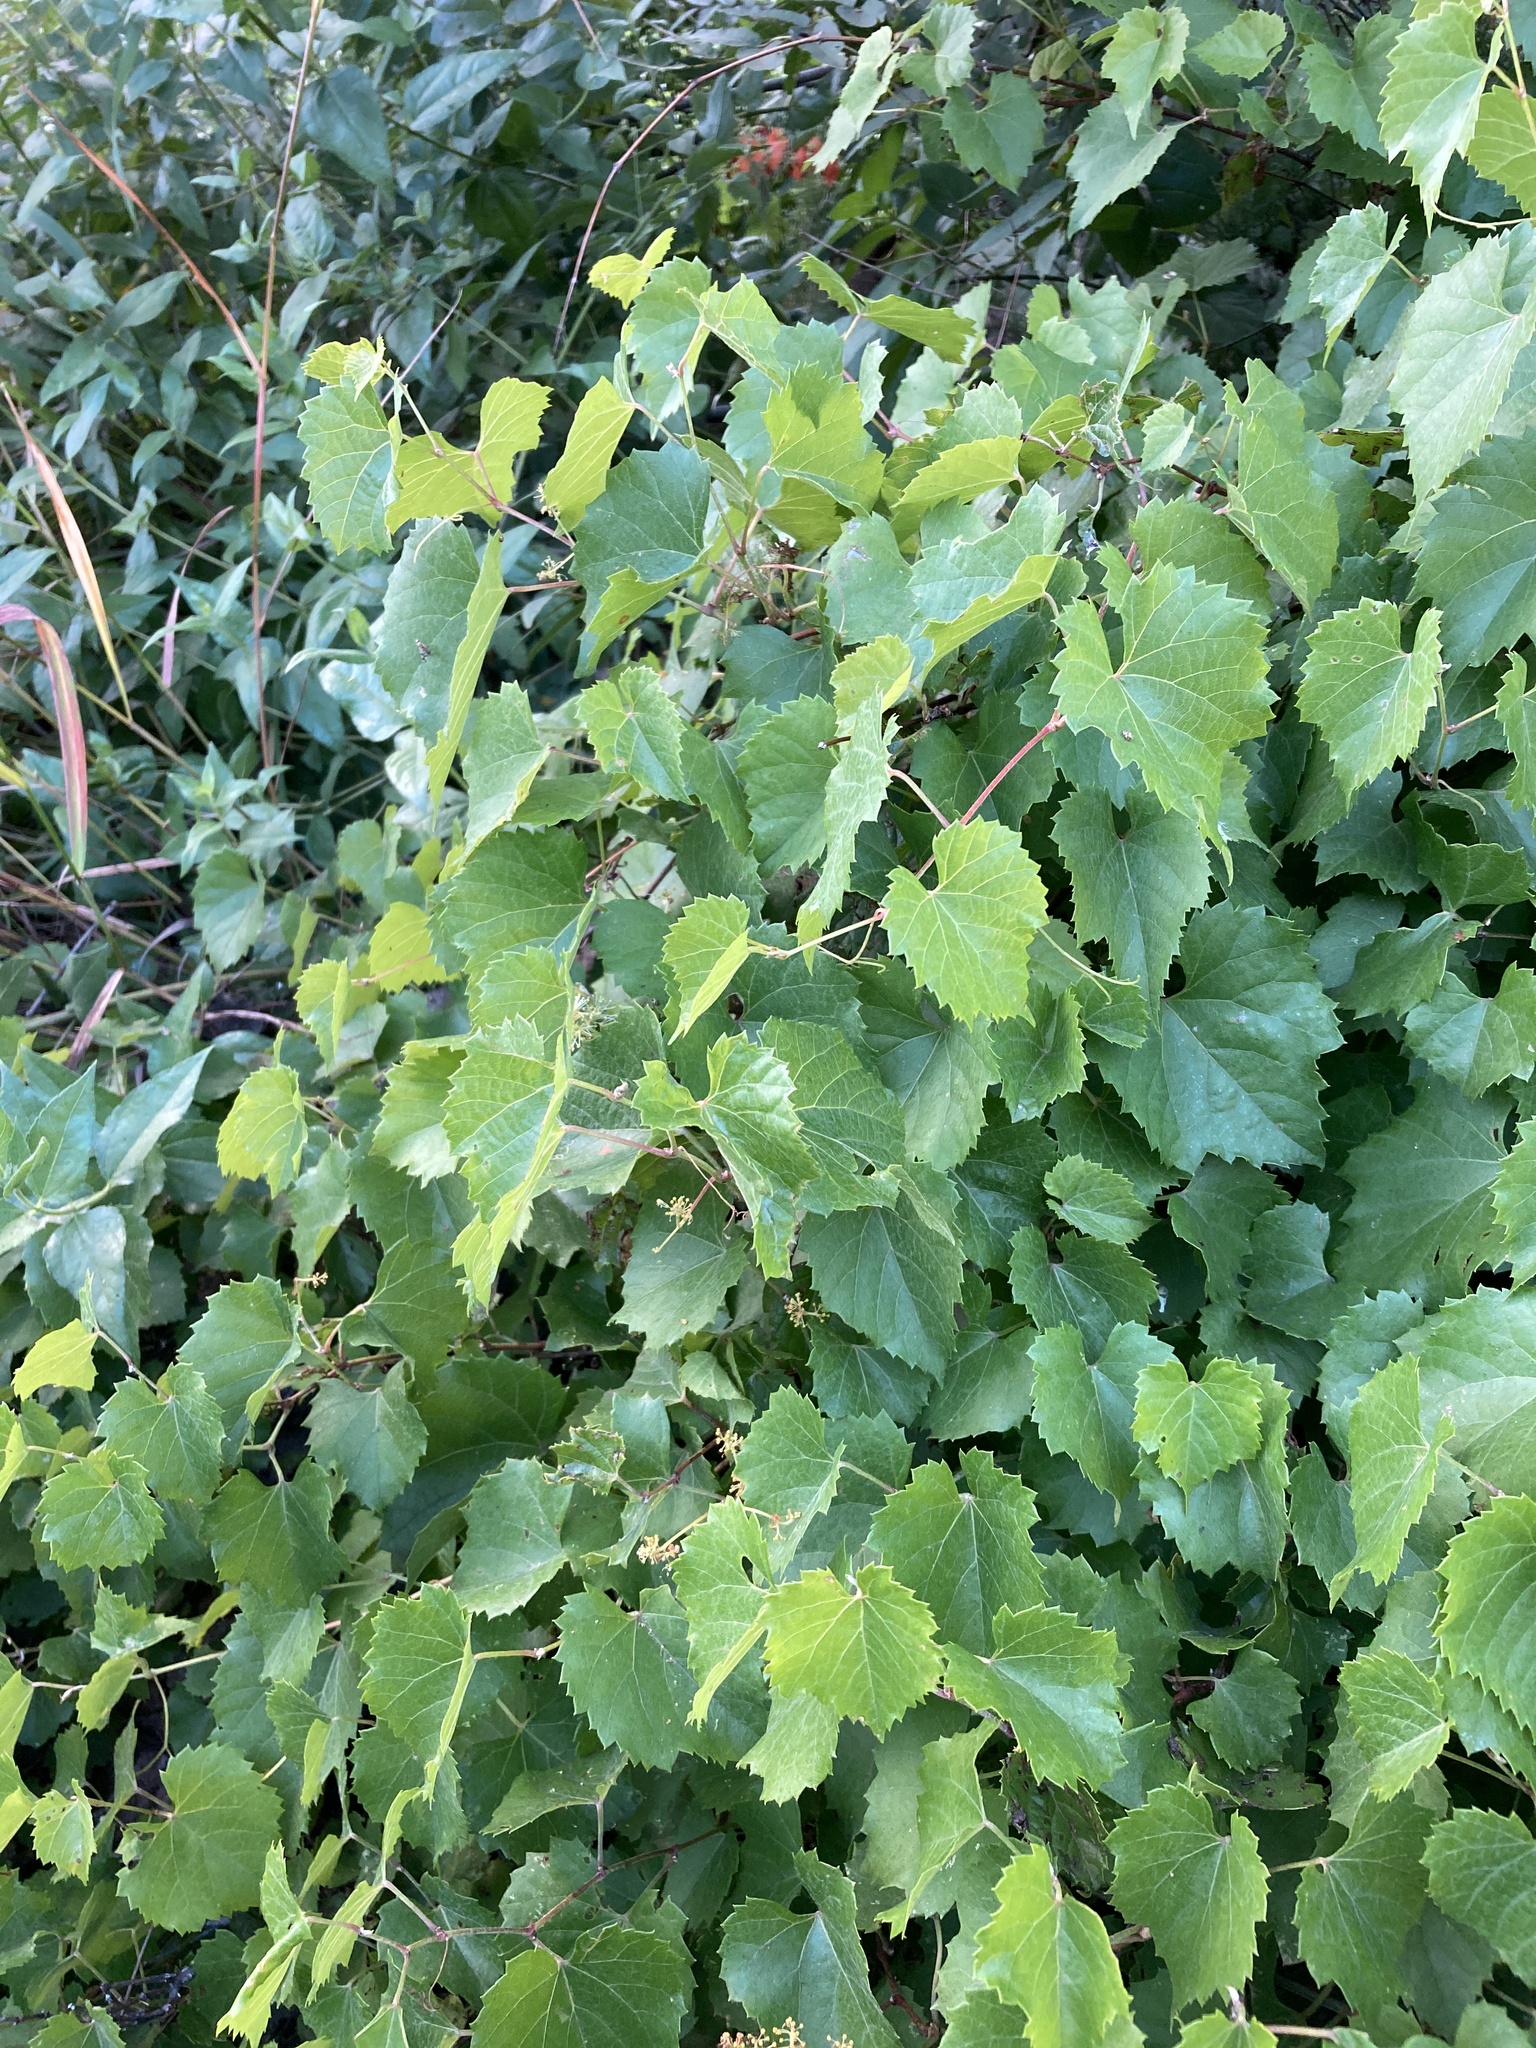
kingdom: Plantae
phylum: Tracheophyta
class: Magnoliopsida
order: Vitales
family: Vitaceae
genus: Vitis
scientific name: Vitis arizonica
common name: Canyon grape
